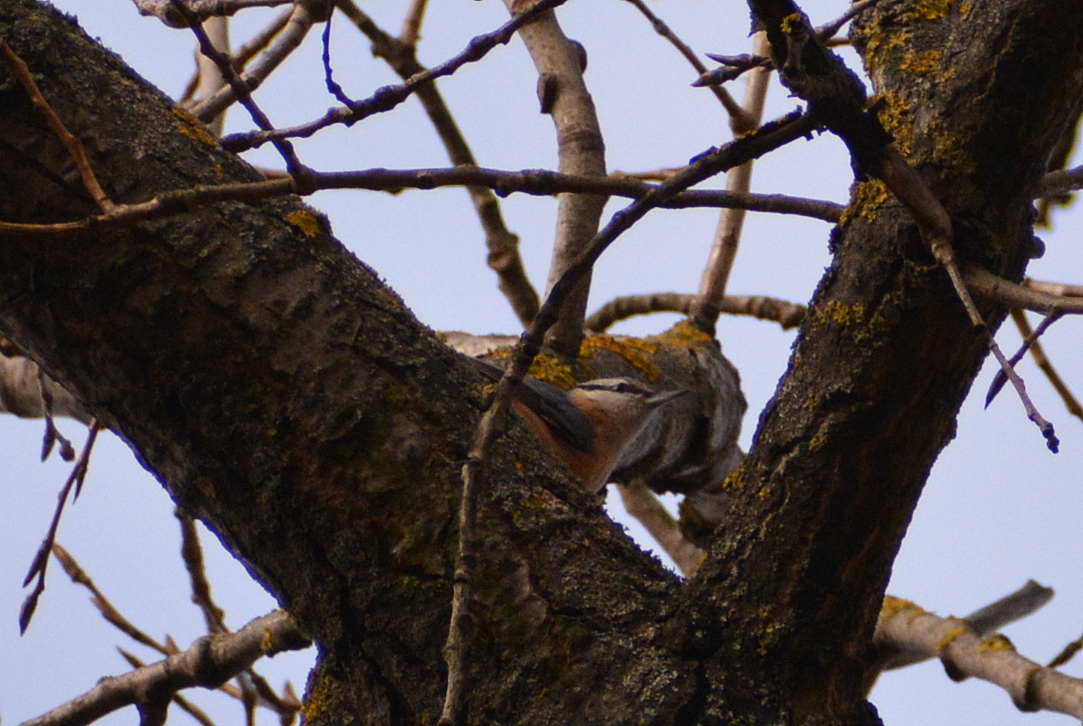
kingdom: Animalia
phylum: Chordata
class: Aves
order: Passeriformes
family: Sittidae
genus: Sitta
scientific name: Sitta europaea
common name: Eurasian nuthatch
